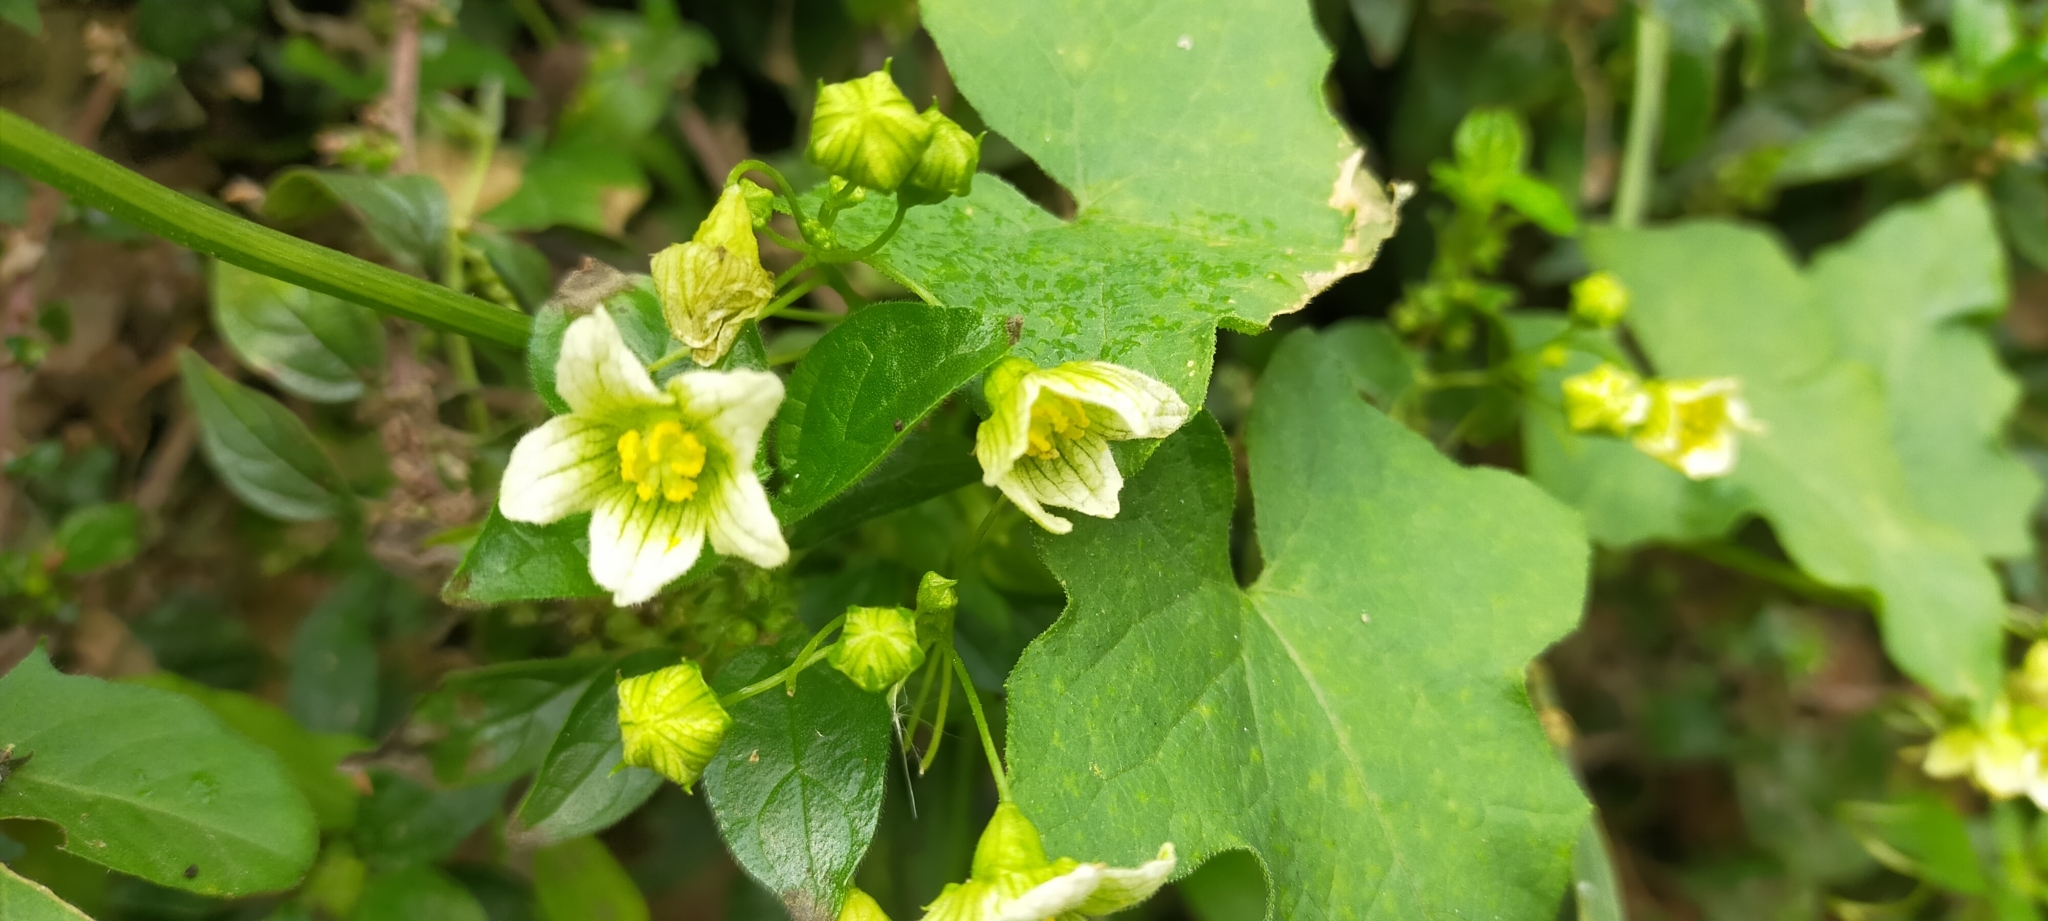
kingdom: Plantae
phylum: Tracheophyta
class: Magnoliopsida
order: Cucurbitales
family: Cucurbitaceae
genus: Bryonia
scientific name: Bryonia cretica
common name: Cretan bryony
